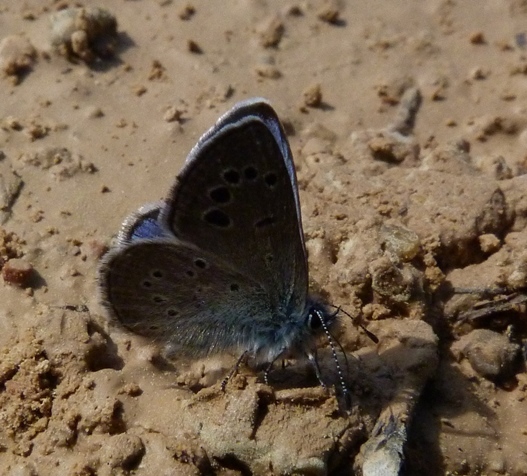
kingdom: Animalia
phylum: Arthropoda
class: Insecta
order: Lepidoptera
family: Lycaenidae
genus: Glaucopsyche
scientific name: Glaucopsyche melanops
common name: Black-eyed blue
